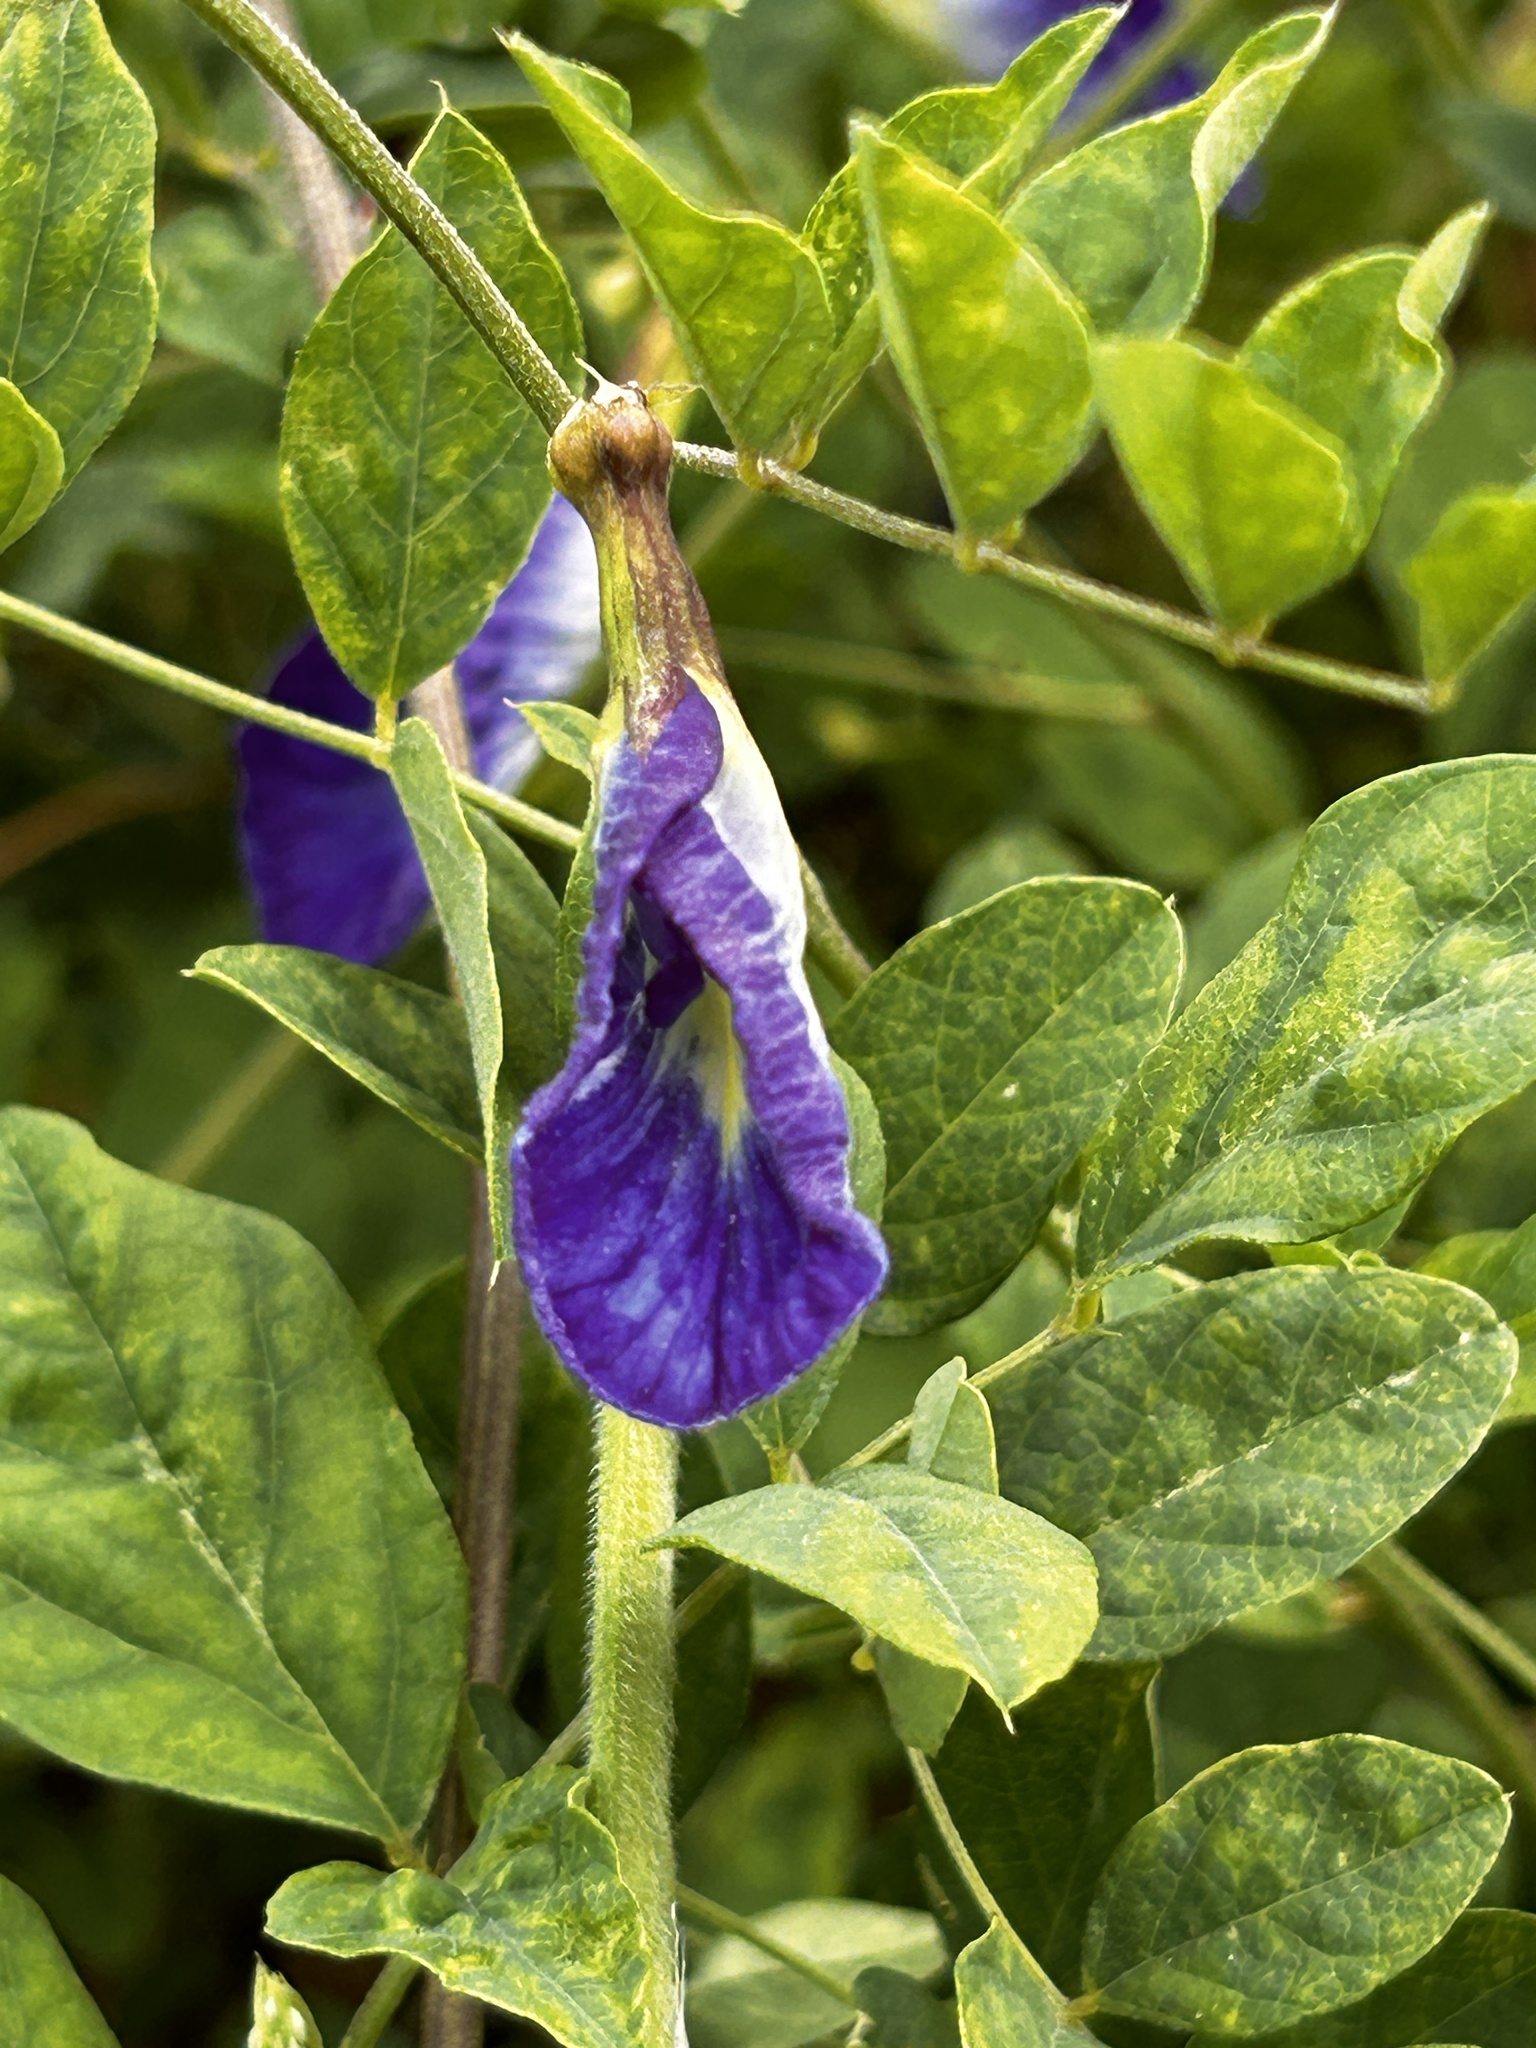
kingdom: Plantae
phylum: Tracheophyta
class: Magnoliopsida
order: Fabales
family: Fabaceae
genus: Clitoria
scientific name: Clitoria ternatea
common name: Asian pigeonwings
